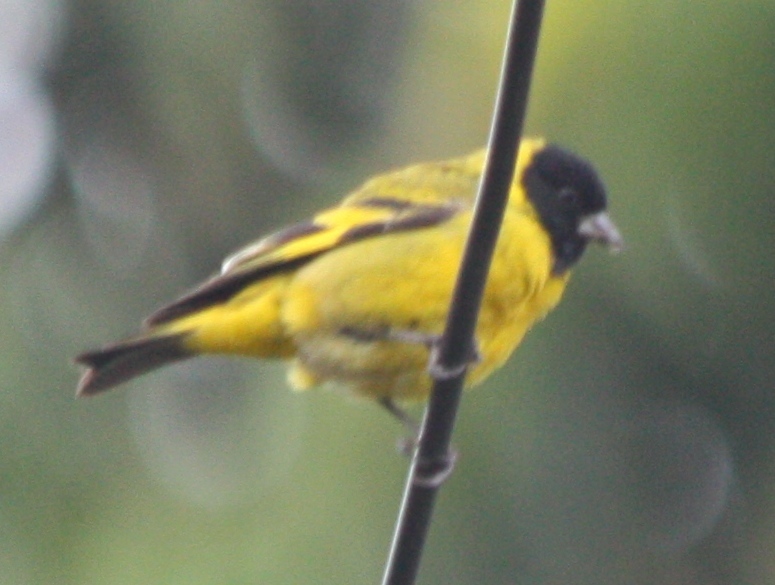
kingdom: Animalia
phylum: Chordata
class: Aves
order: Passeriformes
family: Fringillidae
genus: Spinus
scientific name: Spinus magellanicus
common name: Hooded siskin
